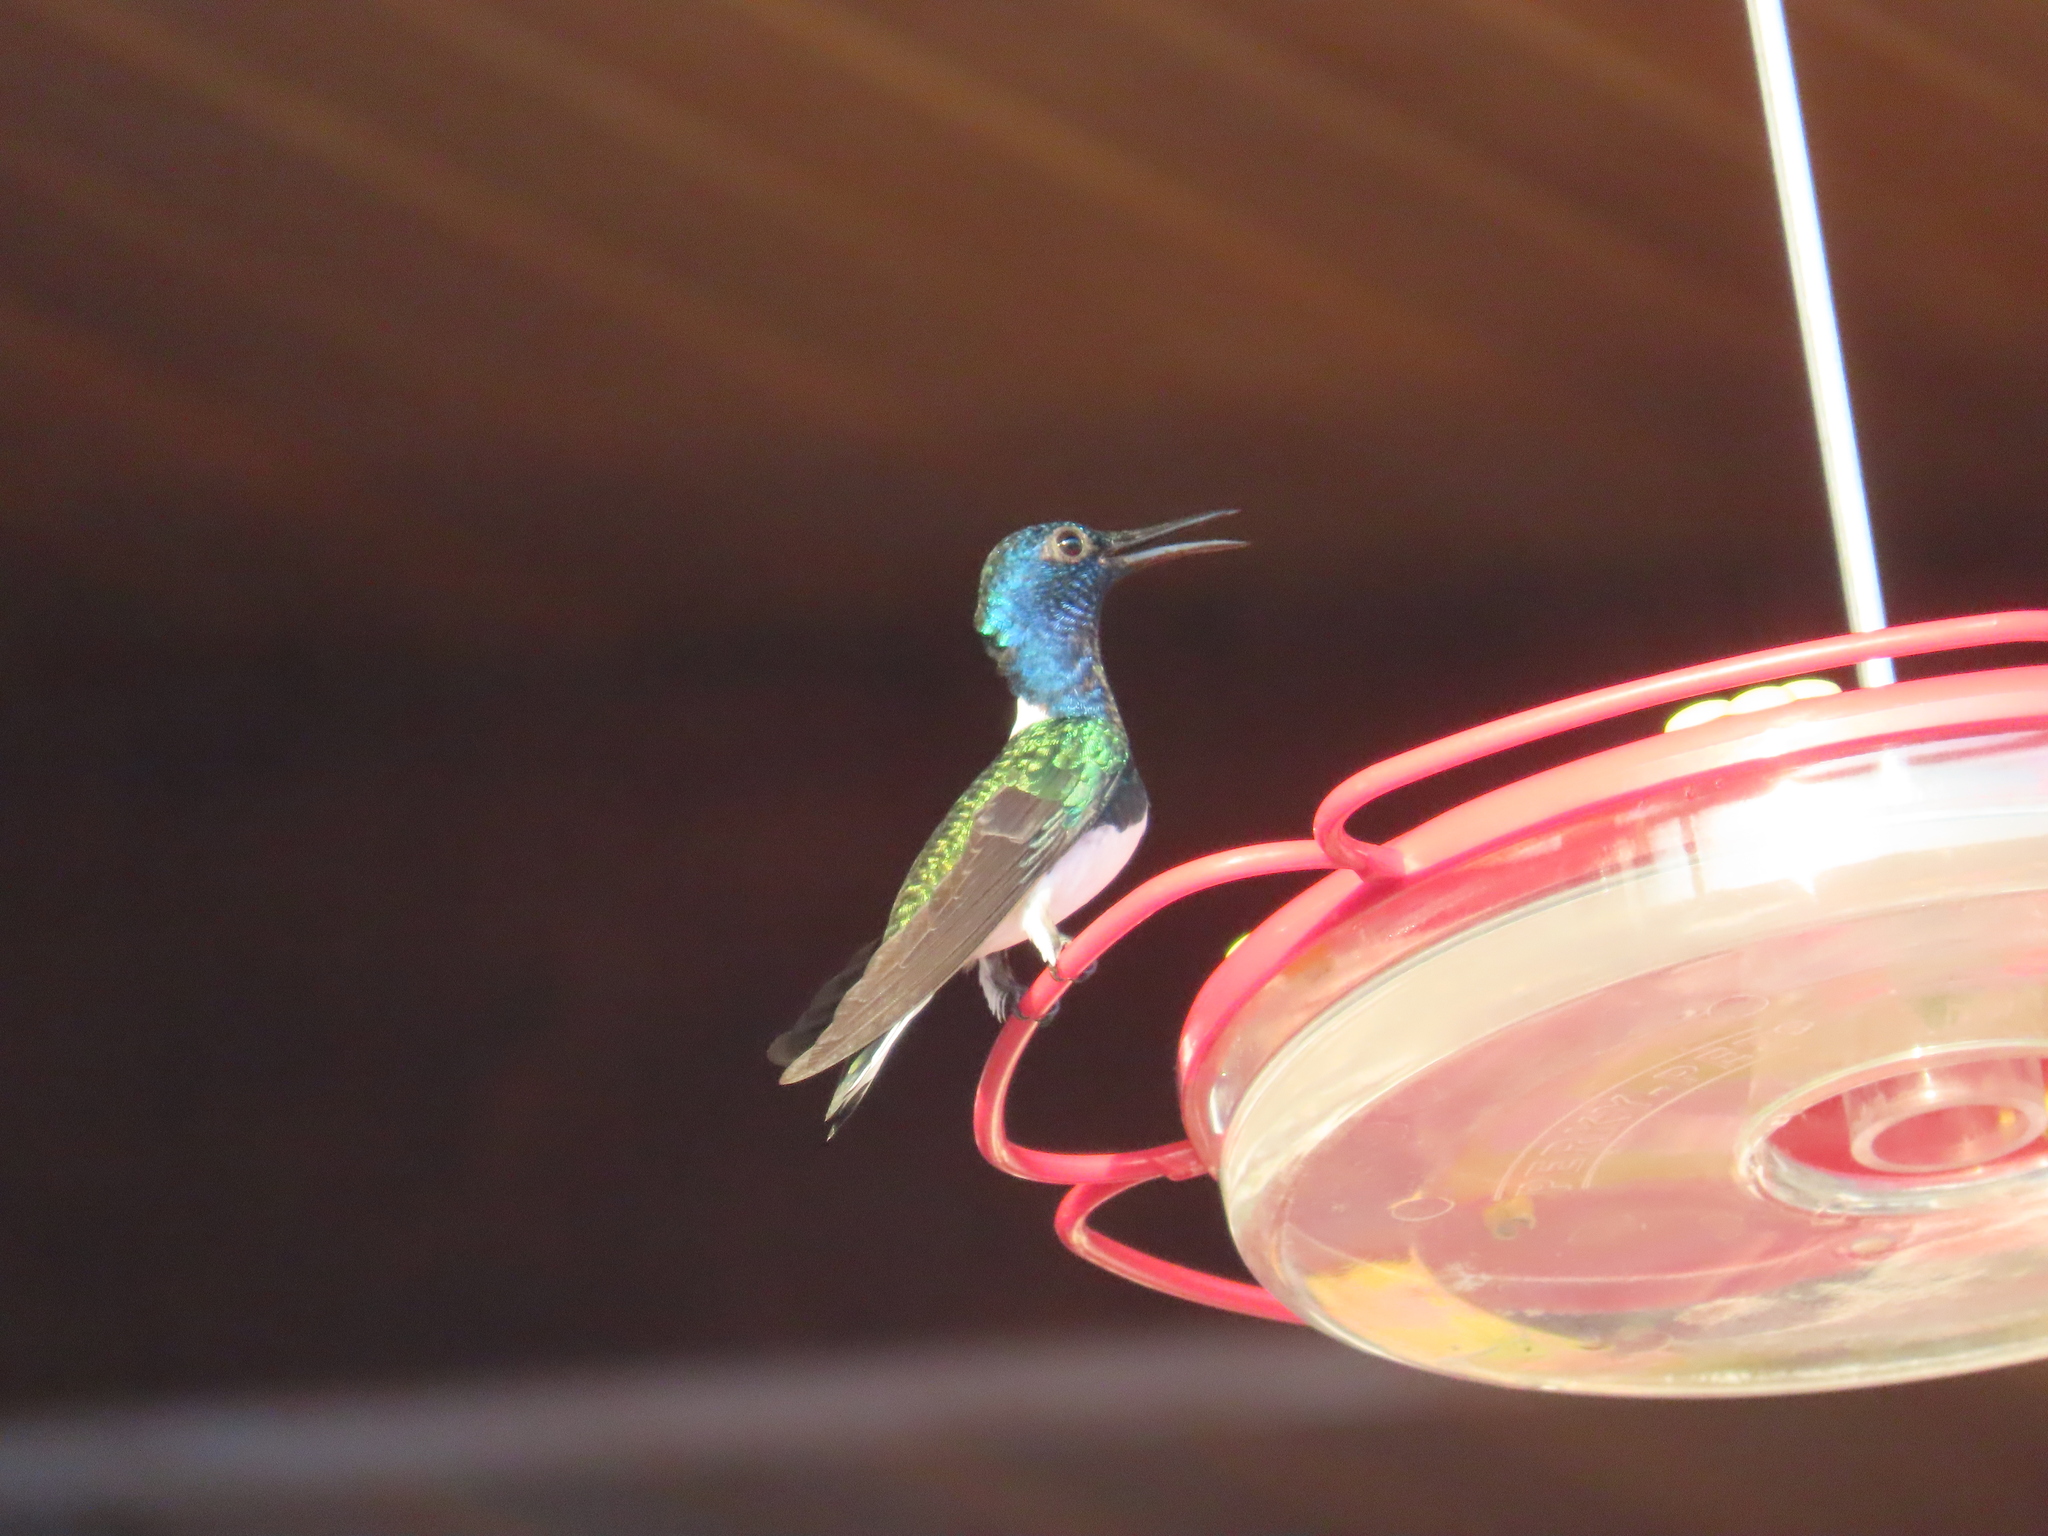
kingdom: Animalia
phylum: Chordata
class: Aves
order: Apodiformes
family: Trochilidae
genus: Florisuga
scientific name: Florisuga mellivora
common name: White-necked jacobin
